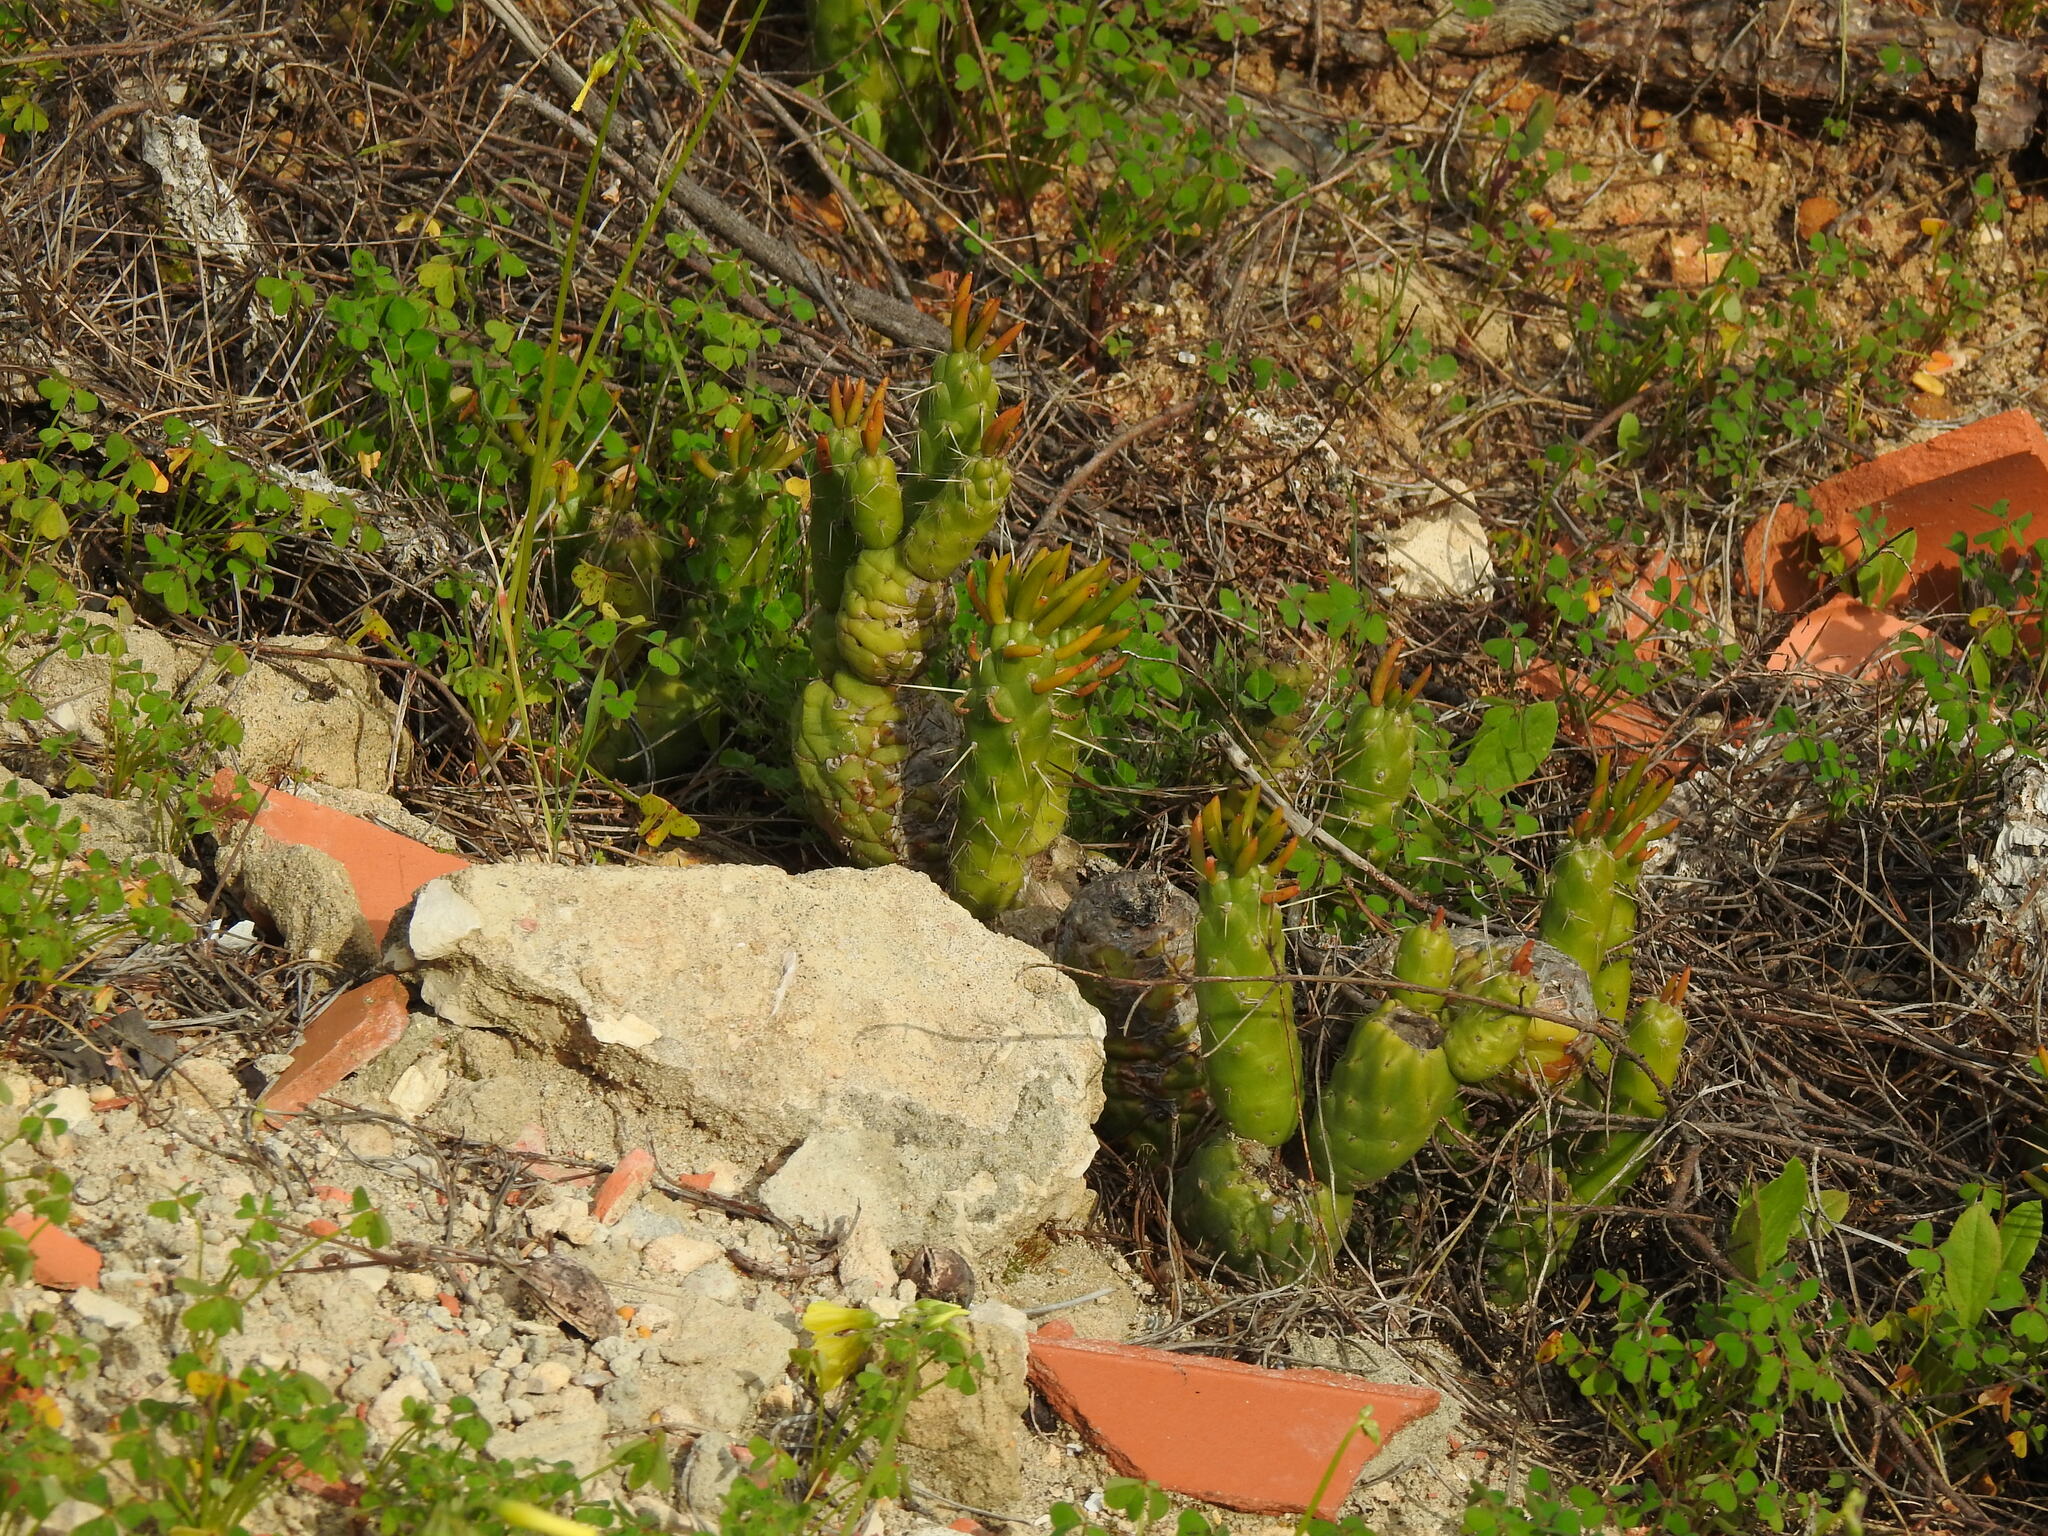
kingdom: Plantae
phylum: Tracheophyta
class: Magnoliopsida
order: Caryophyllales
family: Cactaceae
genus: Austrocylindropuntia
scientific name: Austrocylindropuntia subulata
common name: Eve's needle cactus
